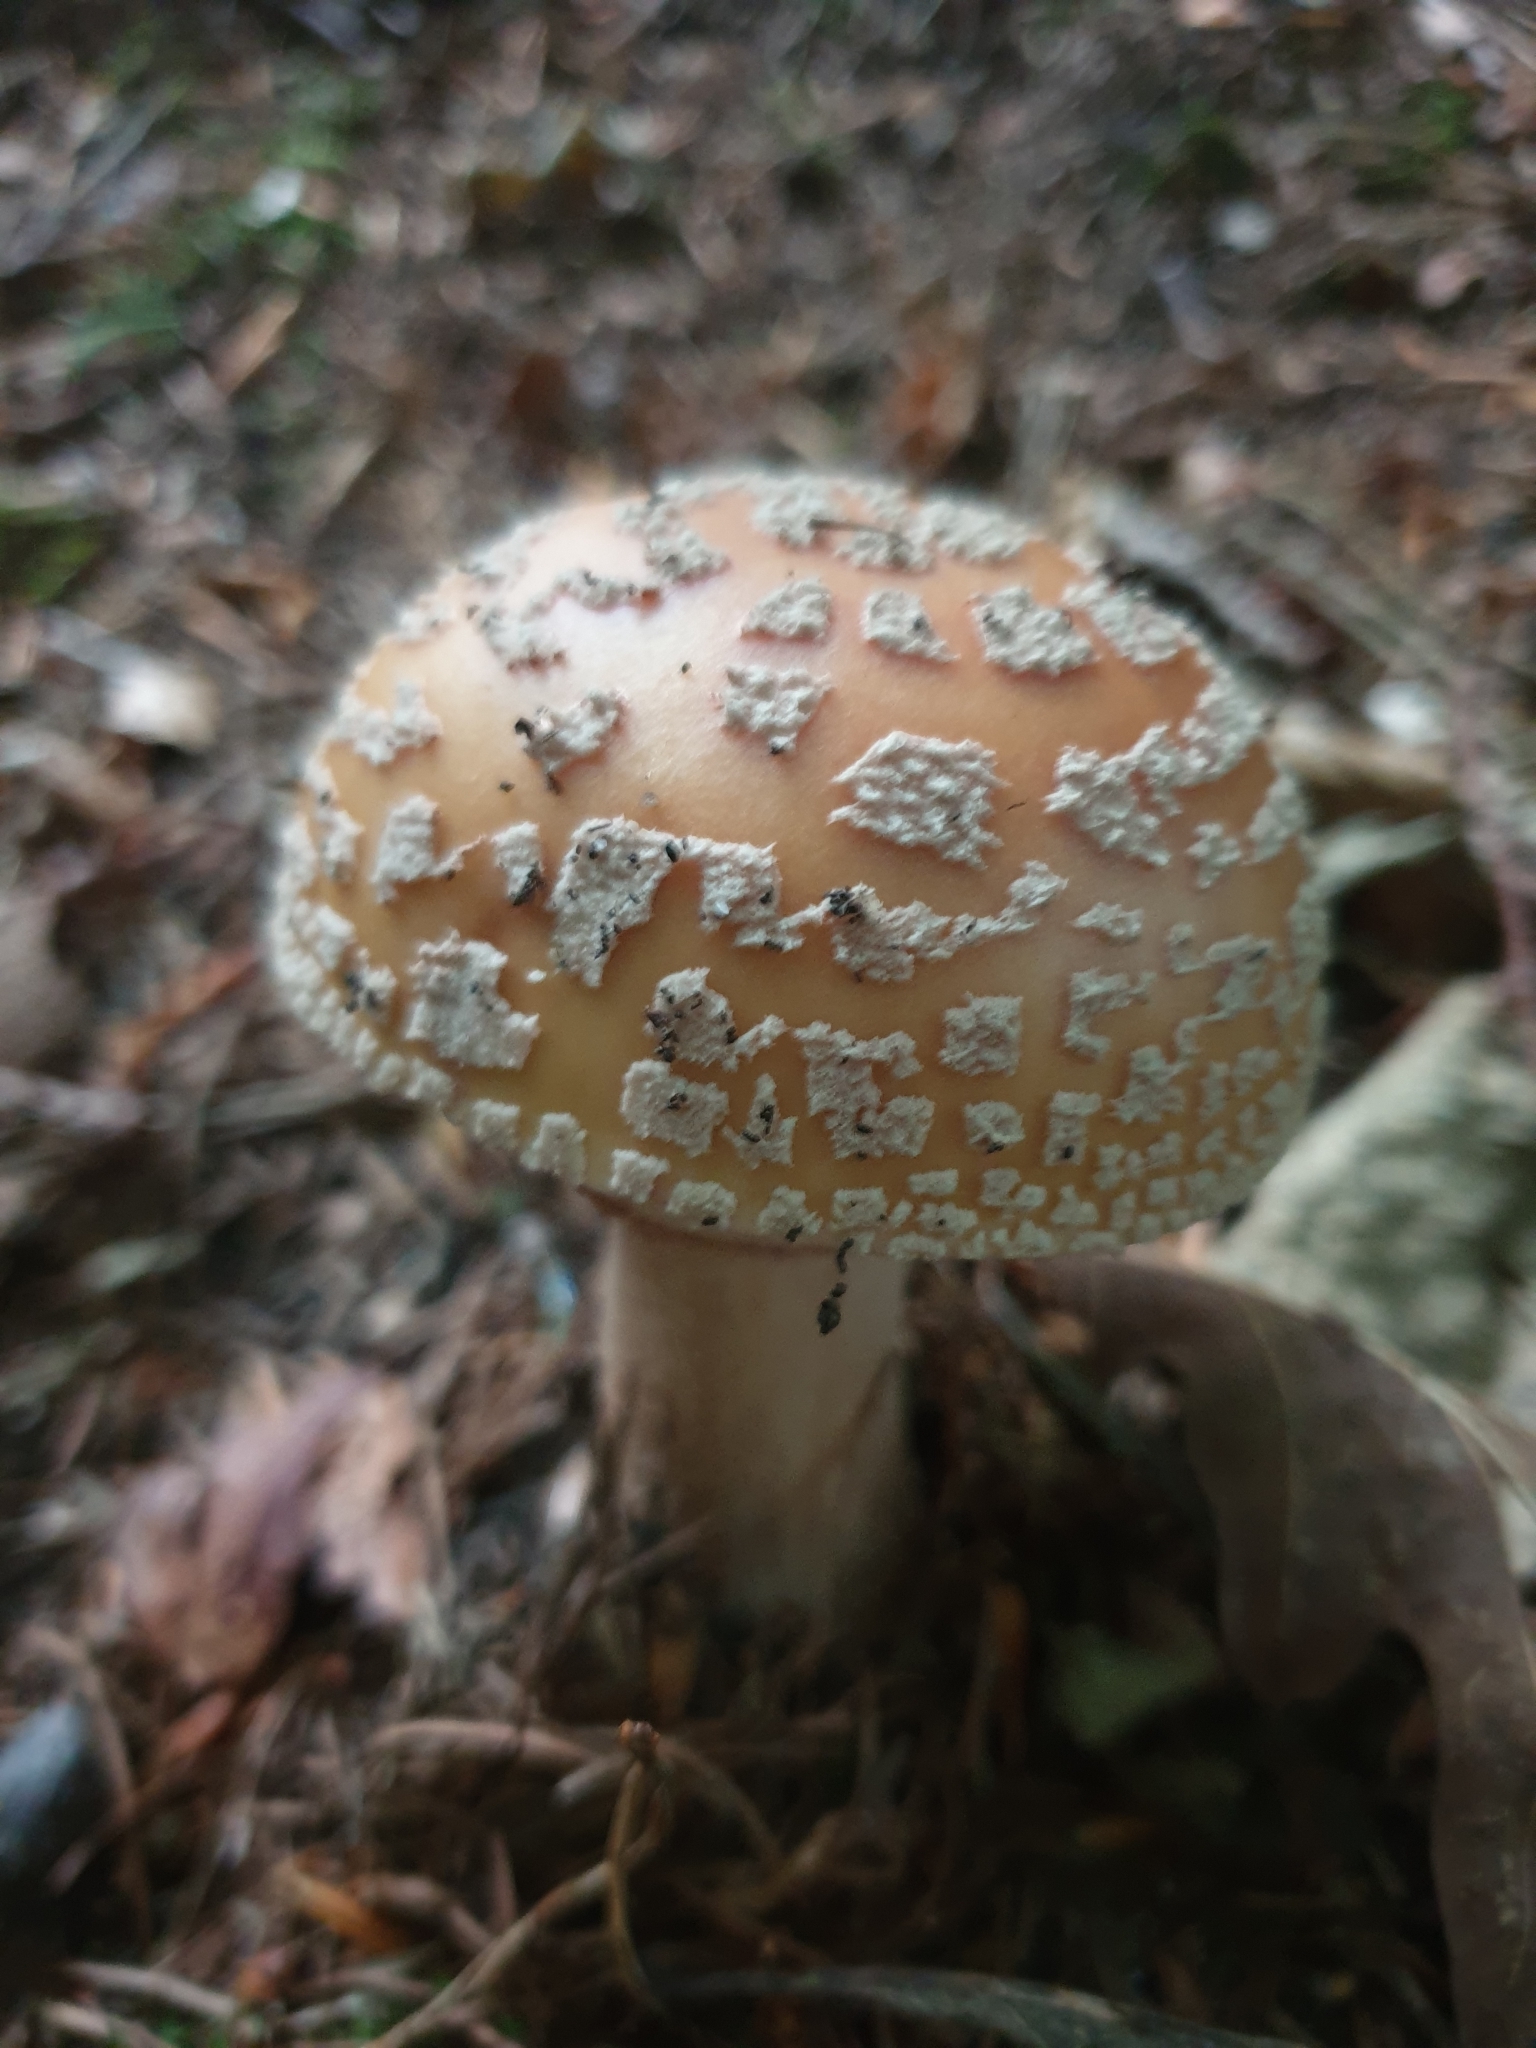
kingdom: Fungi
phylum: Basidiomycota
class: Agaricomycetes
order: Agaricales
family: Amanitaceae
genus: Amanita
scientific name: Amanita rubescens
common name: Blusher
